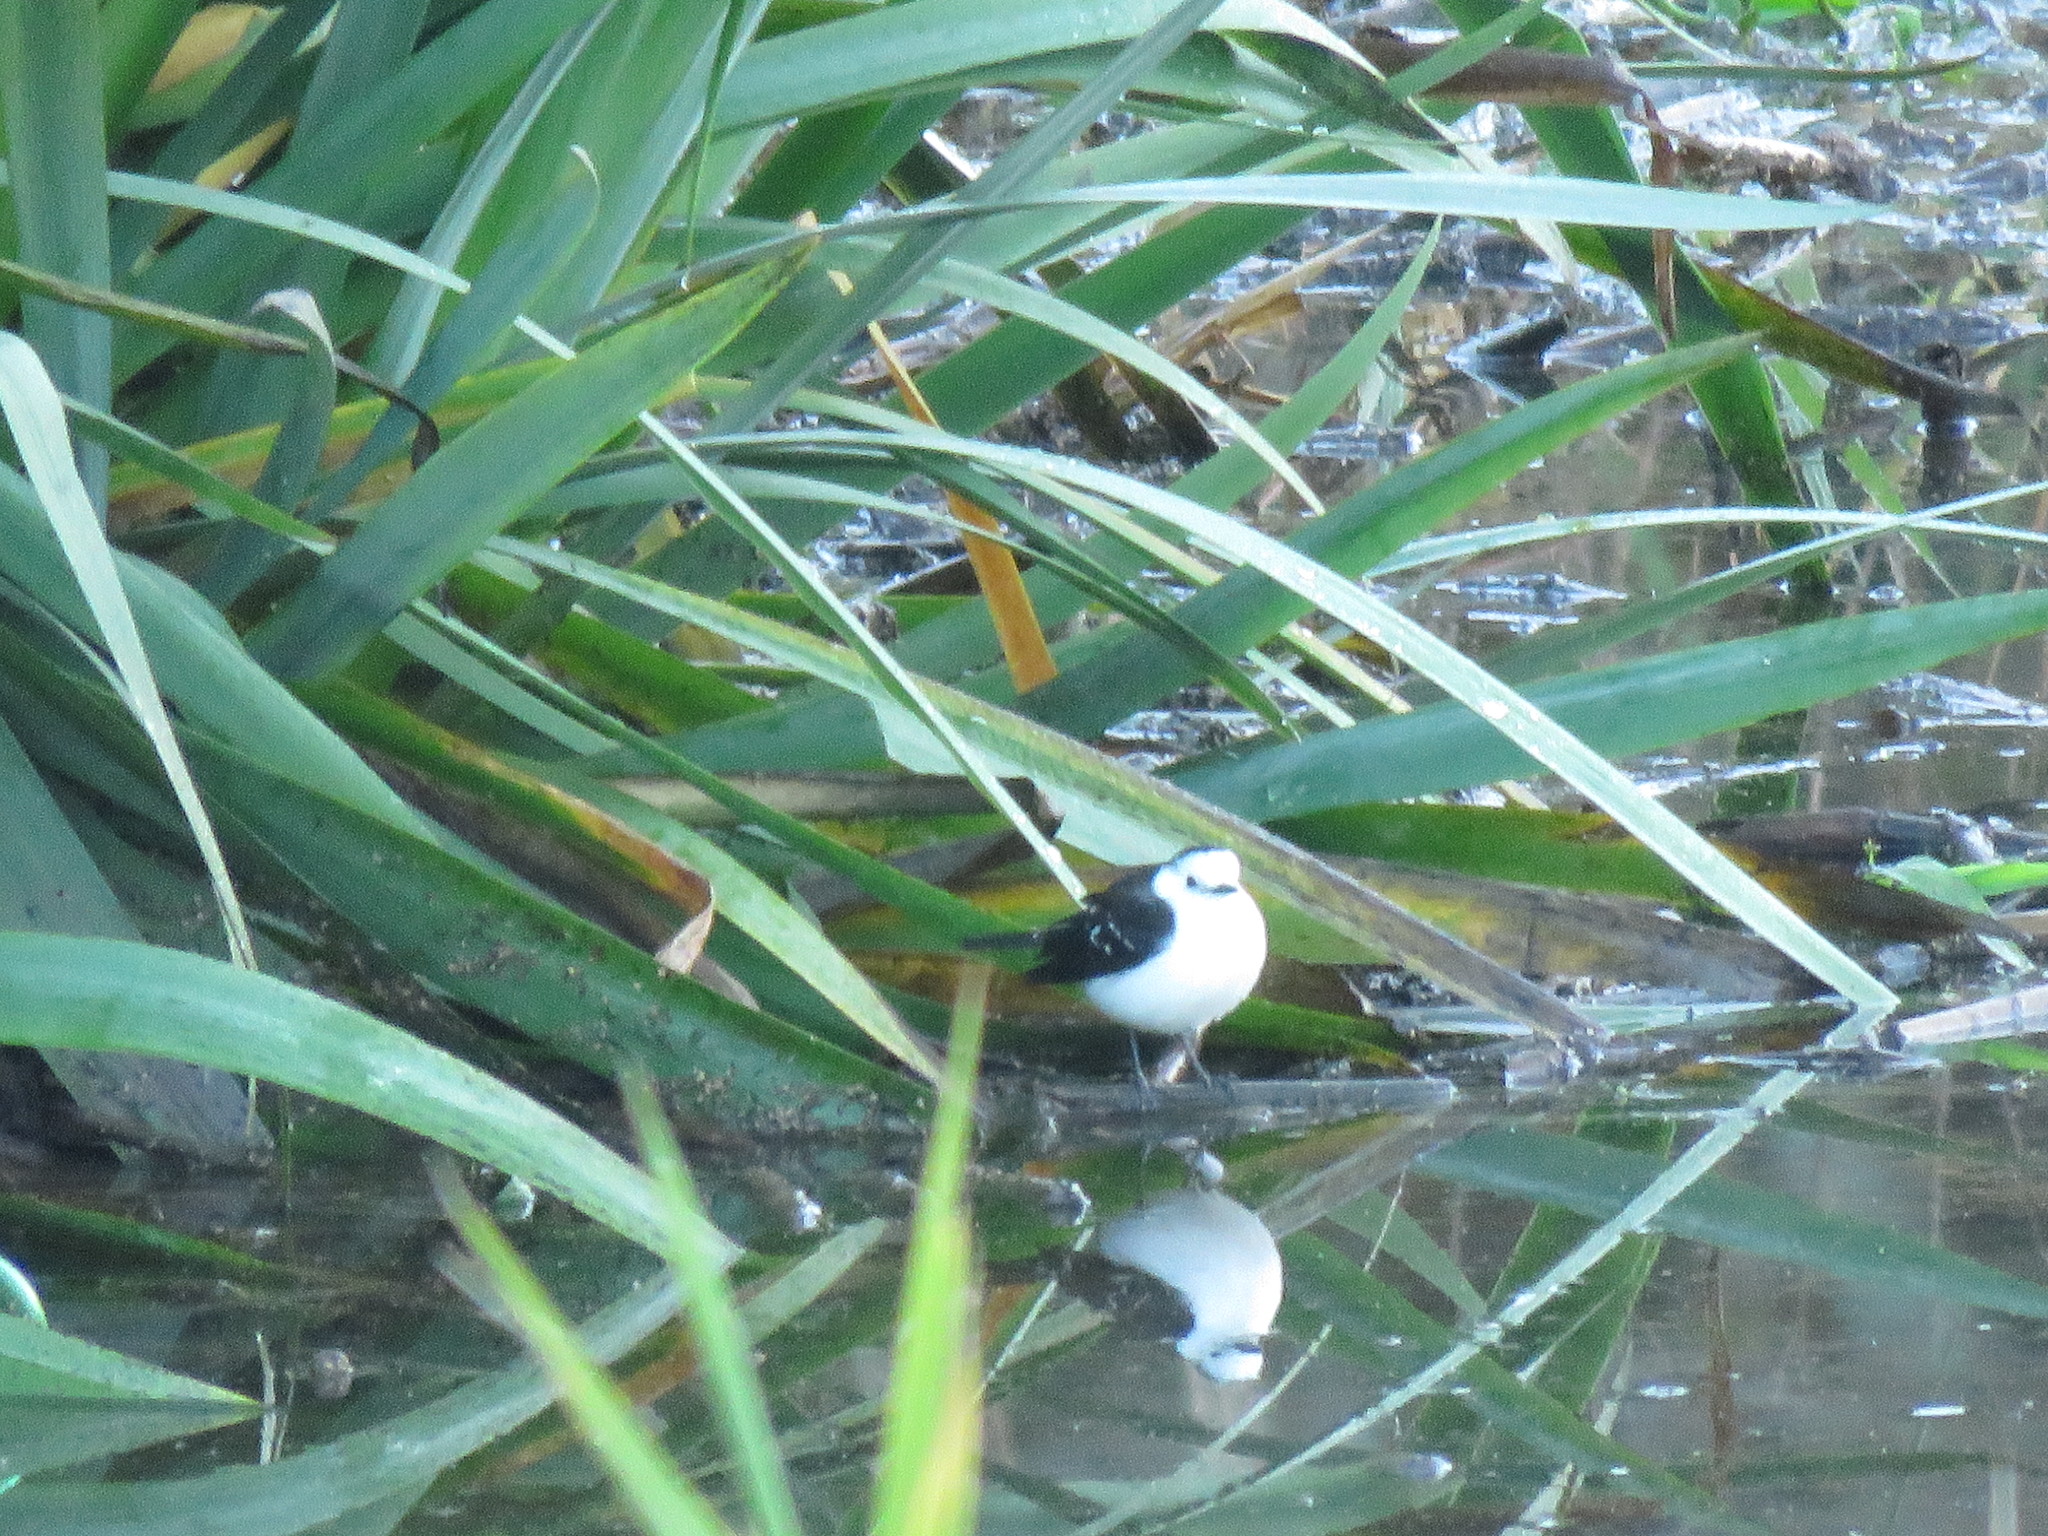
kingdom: Animalia
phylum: Chordata
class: Aves
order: Passeriformes
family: Tyrannidae
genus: Fluvicola
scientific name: Fluvicola pica
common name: Pied water-tyrant
